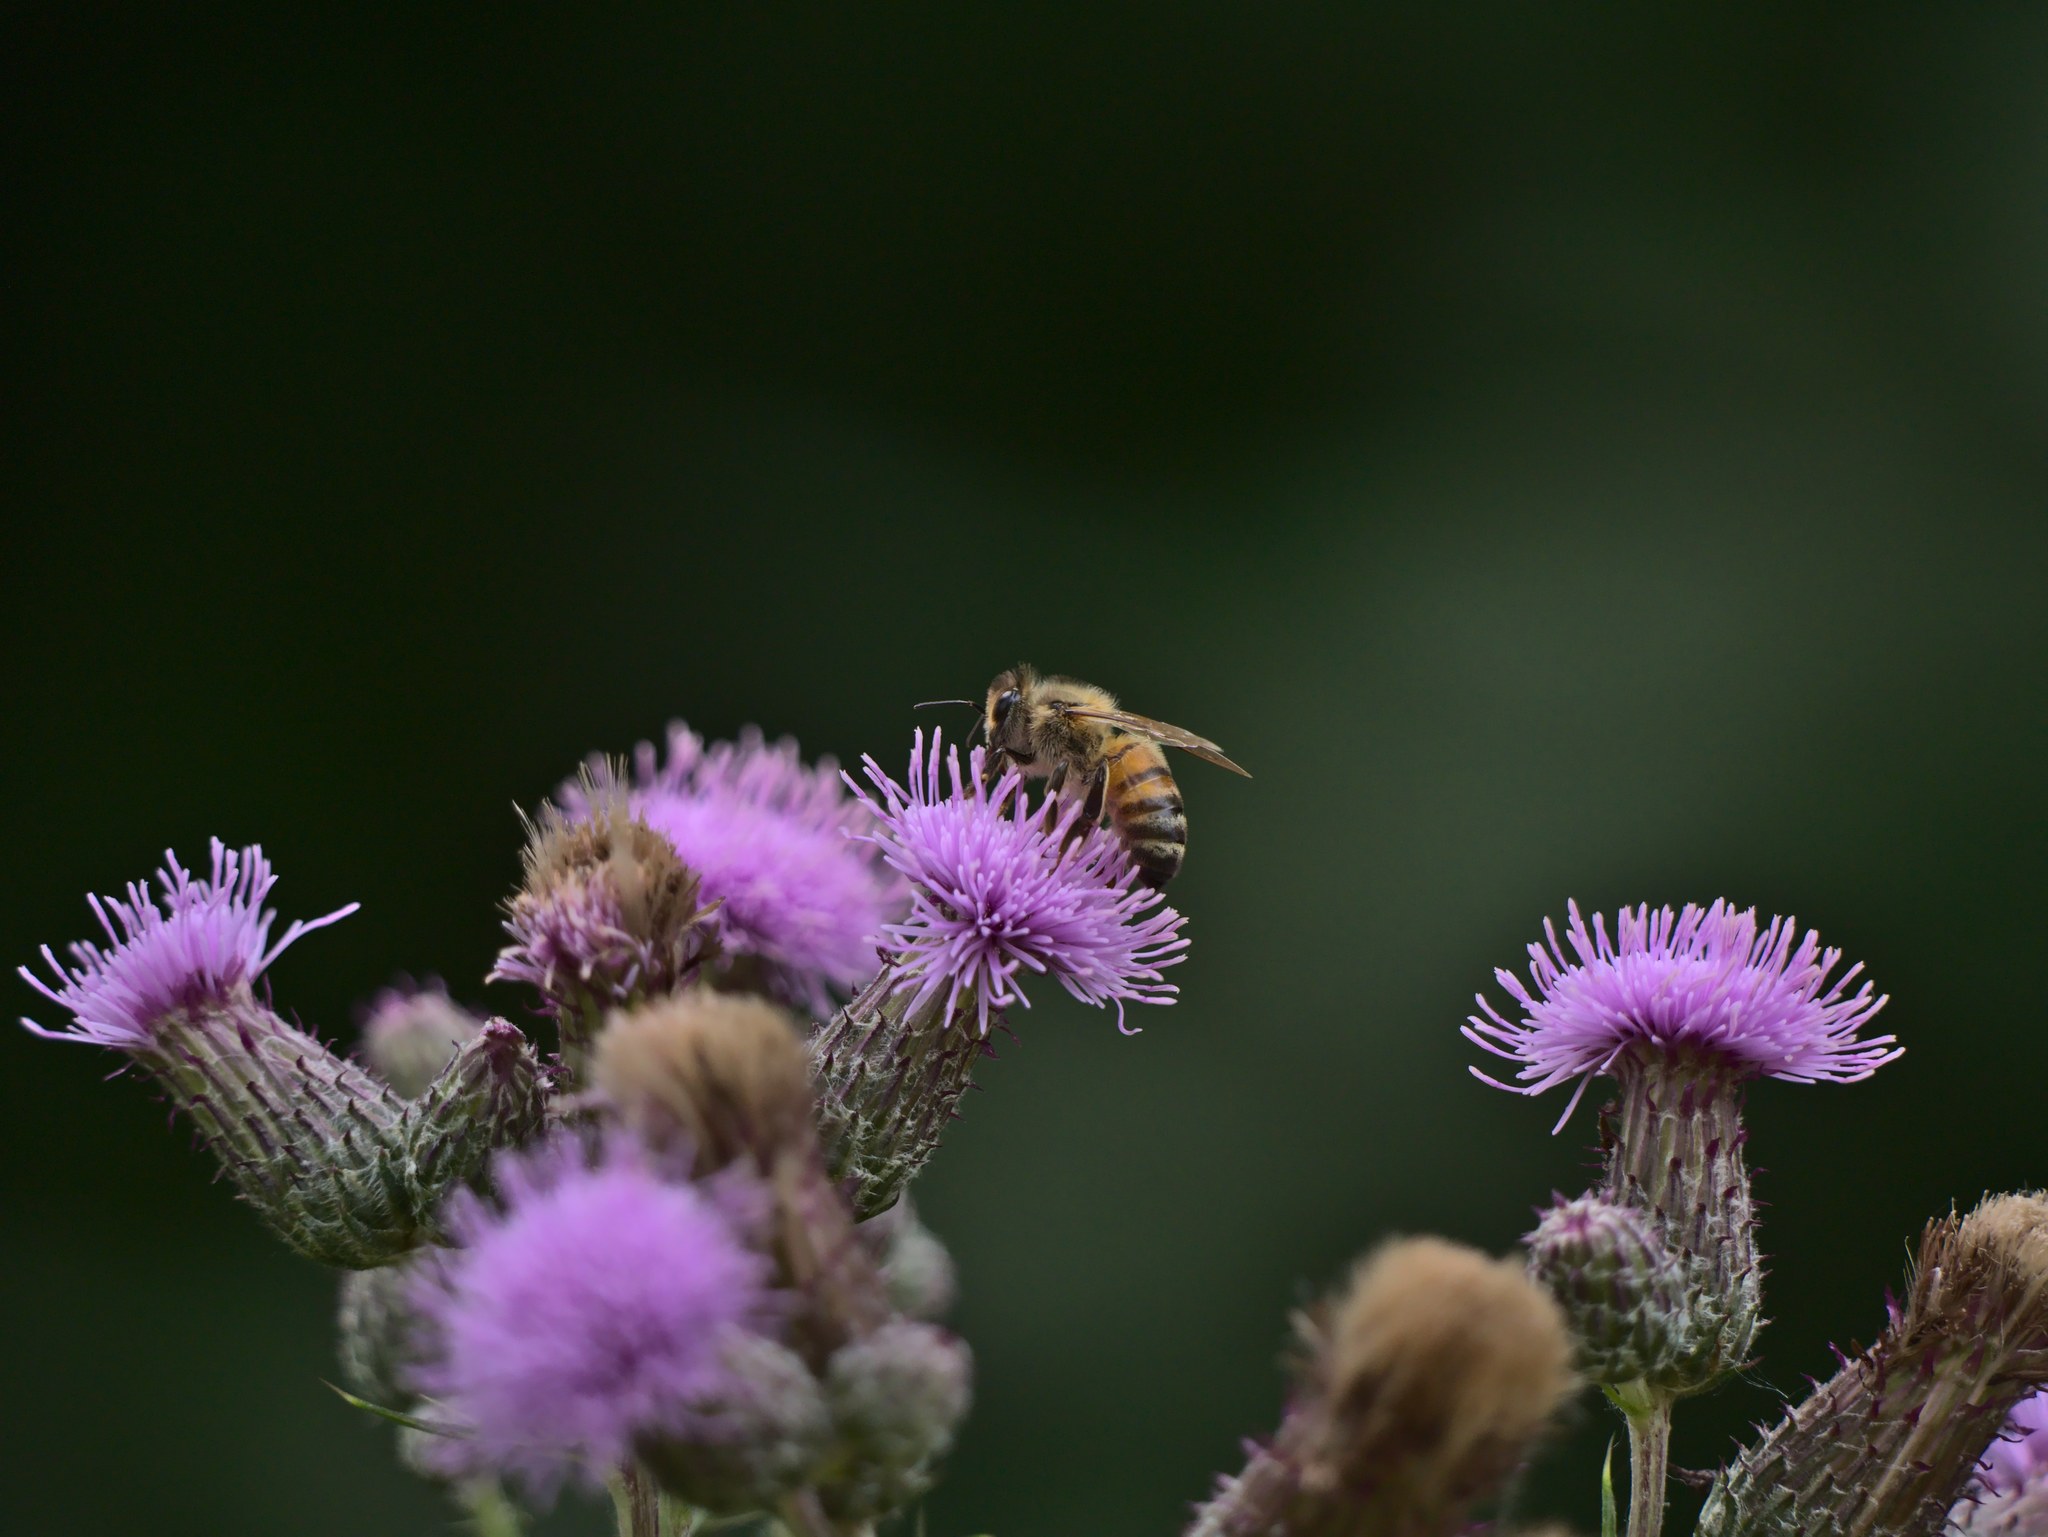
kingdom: Animalia
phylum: Arthropoda
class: Insecta
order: Hymenoptera
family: Apidae
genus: Apis
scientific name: Apis mellifera
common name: Honey bee
